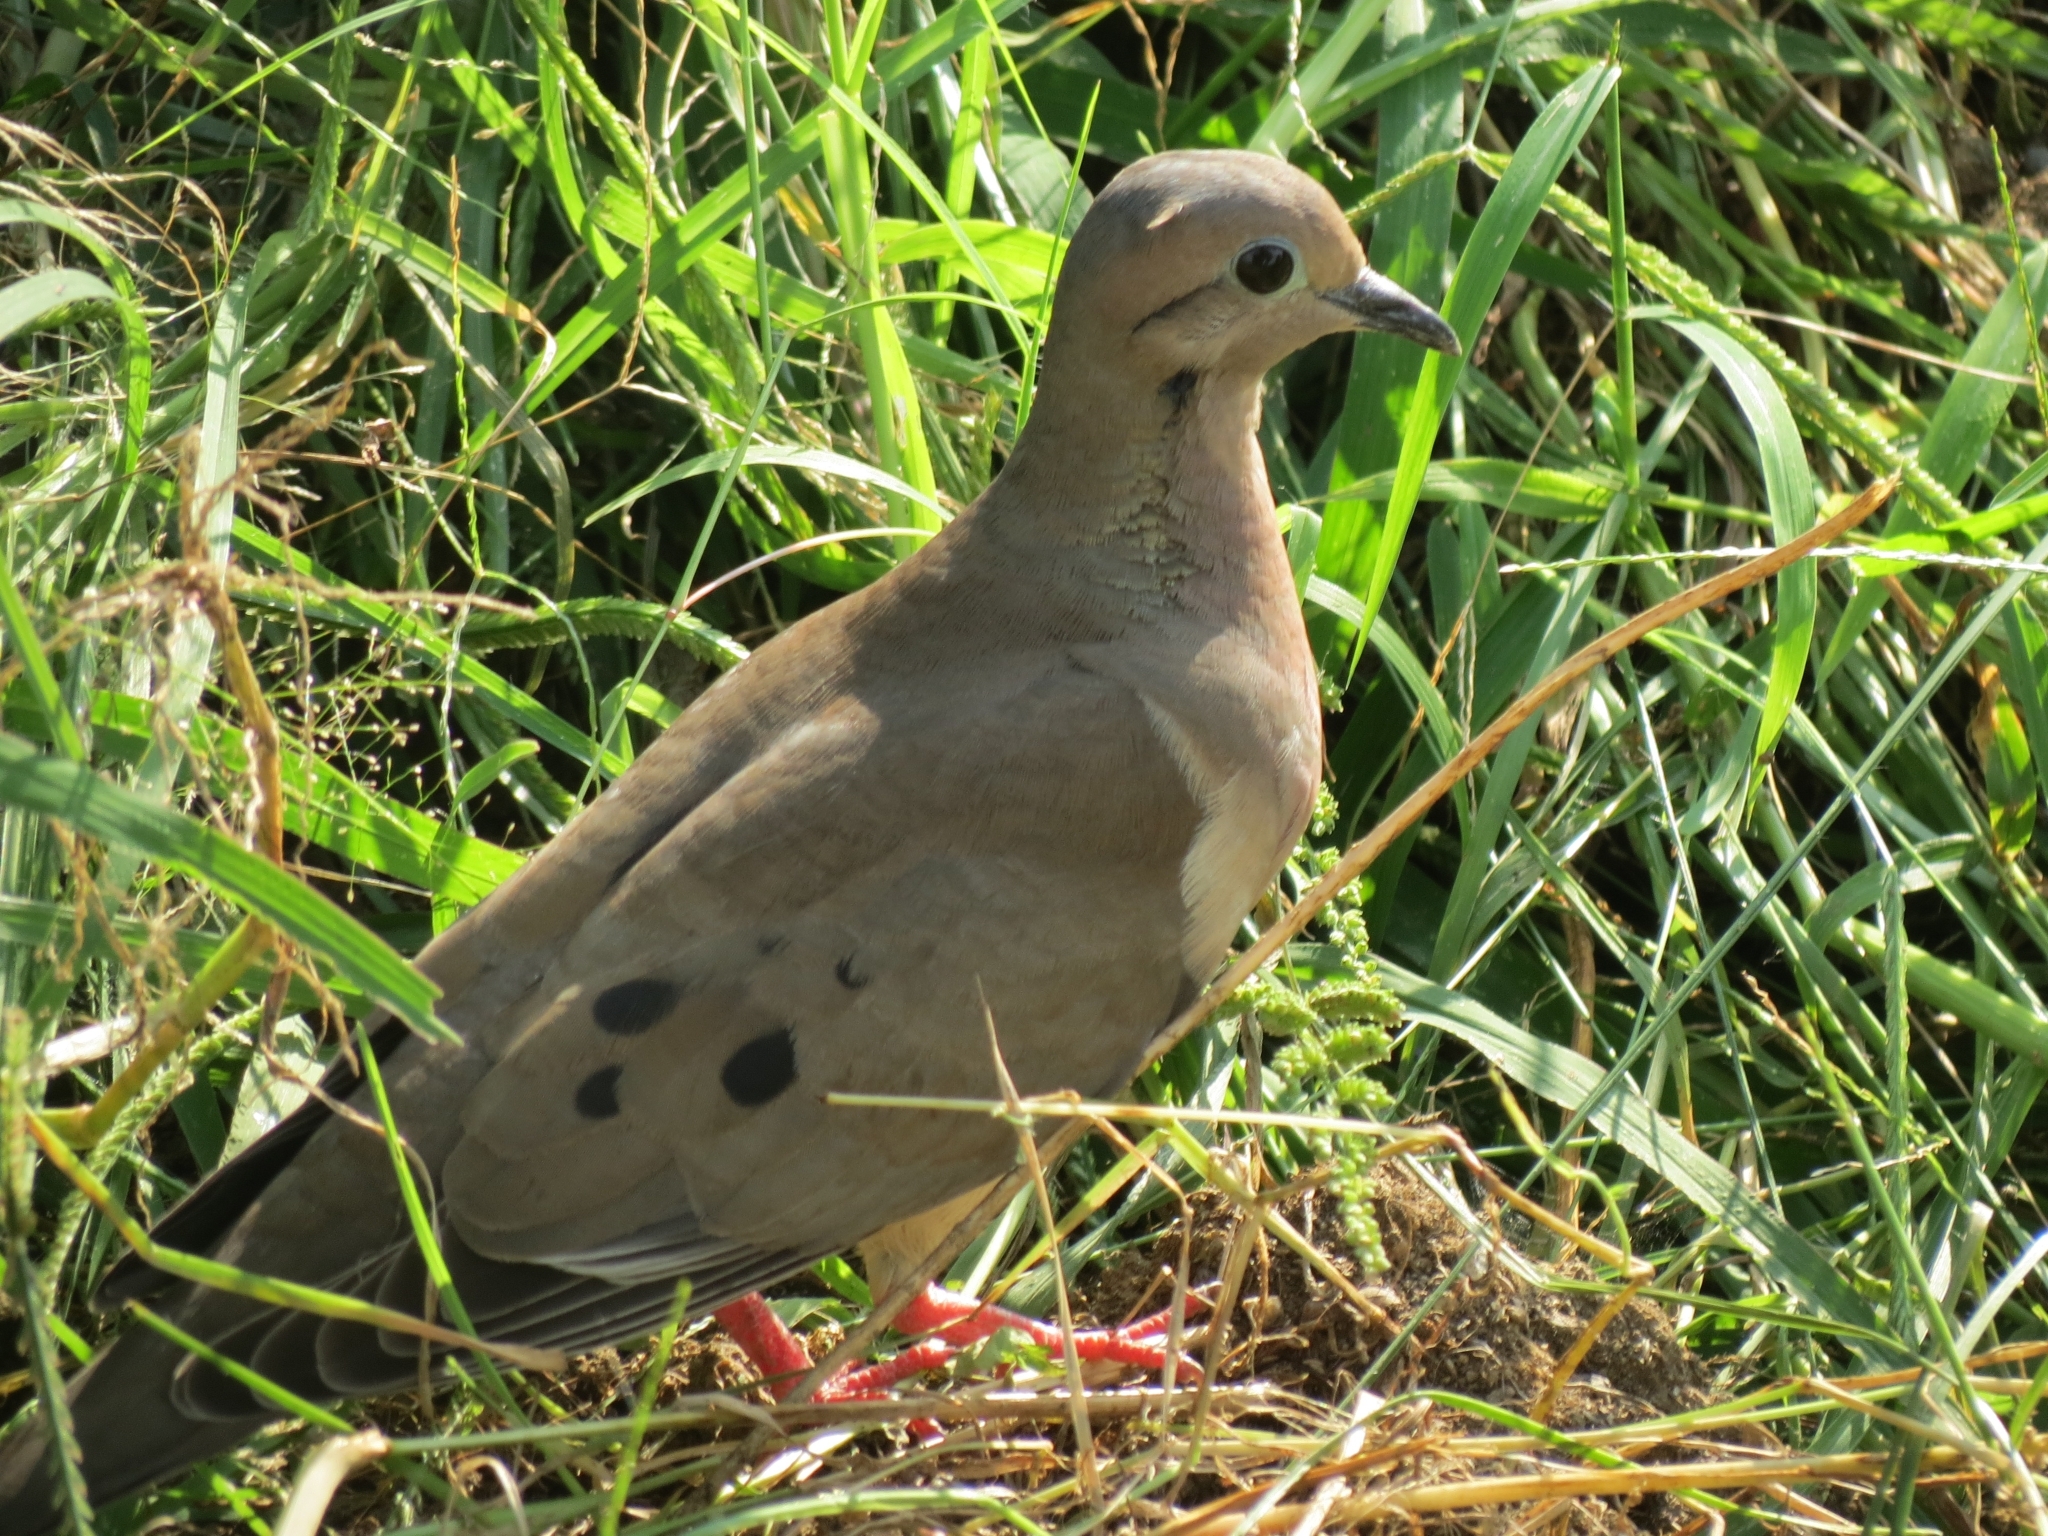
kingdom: Animalia
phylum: Chordata
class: Aves
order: Columbiformes
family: Columbidae
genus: Zenaida
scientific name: Zenaida auriculata
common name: Eared dove
